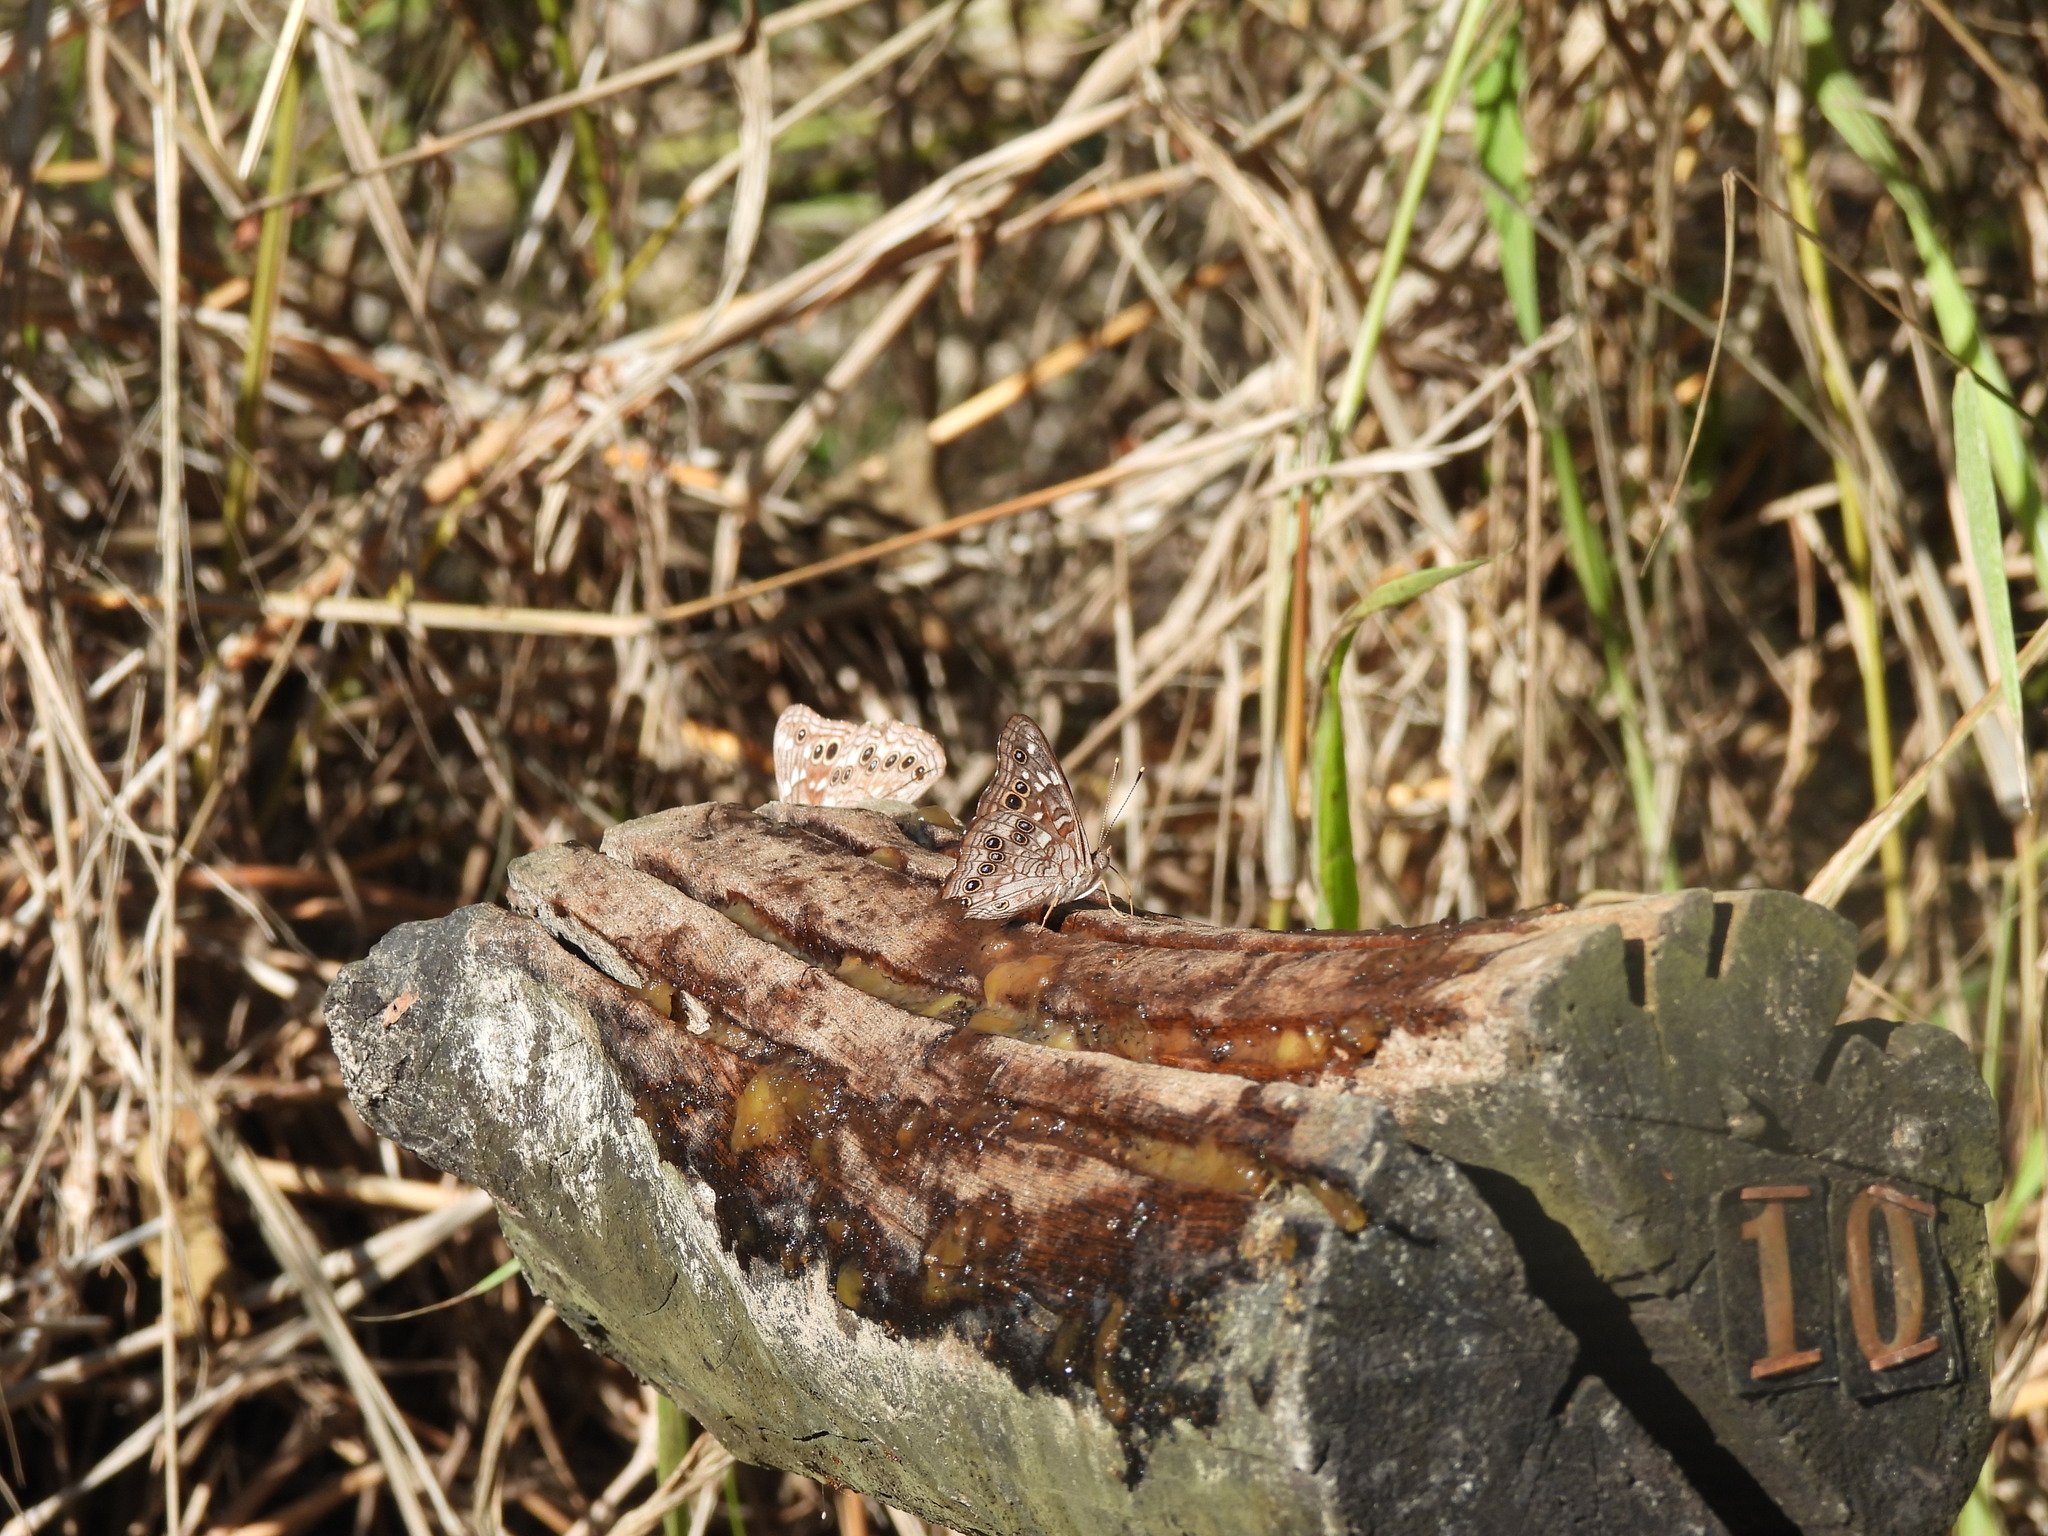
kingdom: Animalia
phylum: Arthropoda
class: Insecta
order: Lepidoptera
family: Nymphalidae
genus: Asterocampa
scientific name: Asterocampa leilia
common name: Empress leilia
